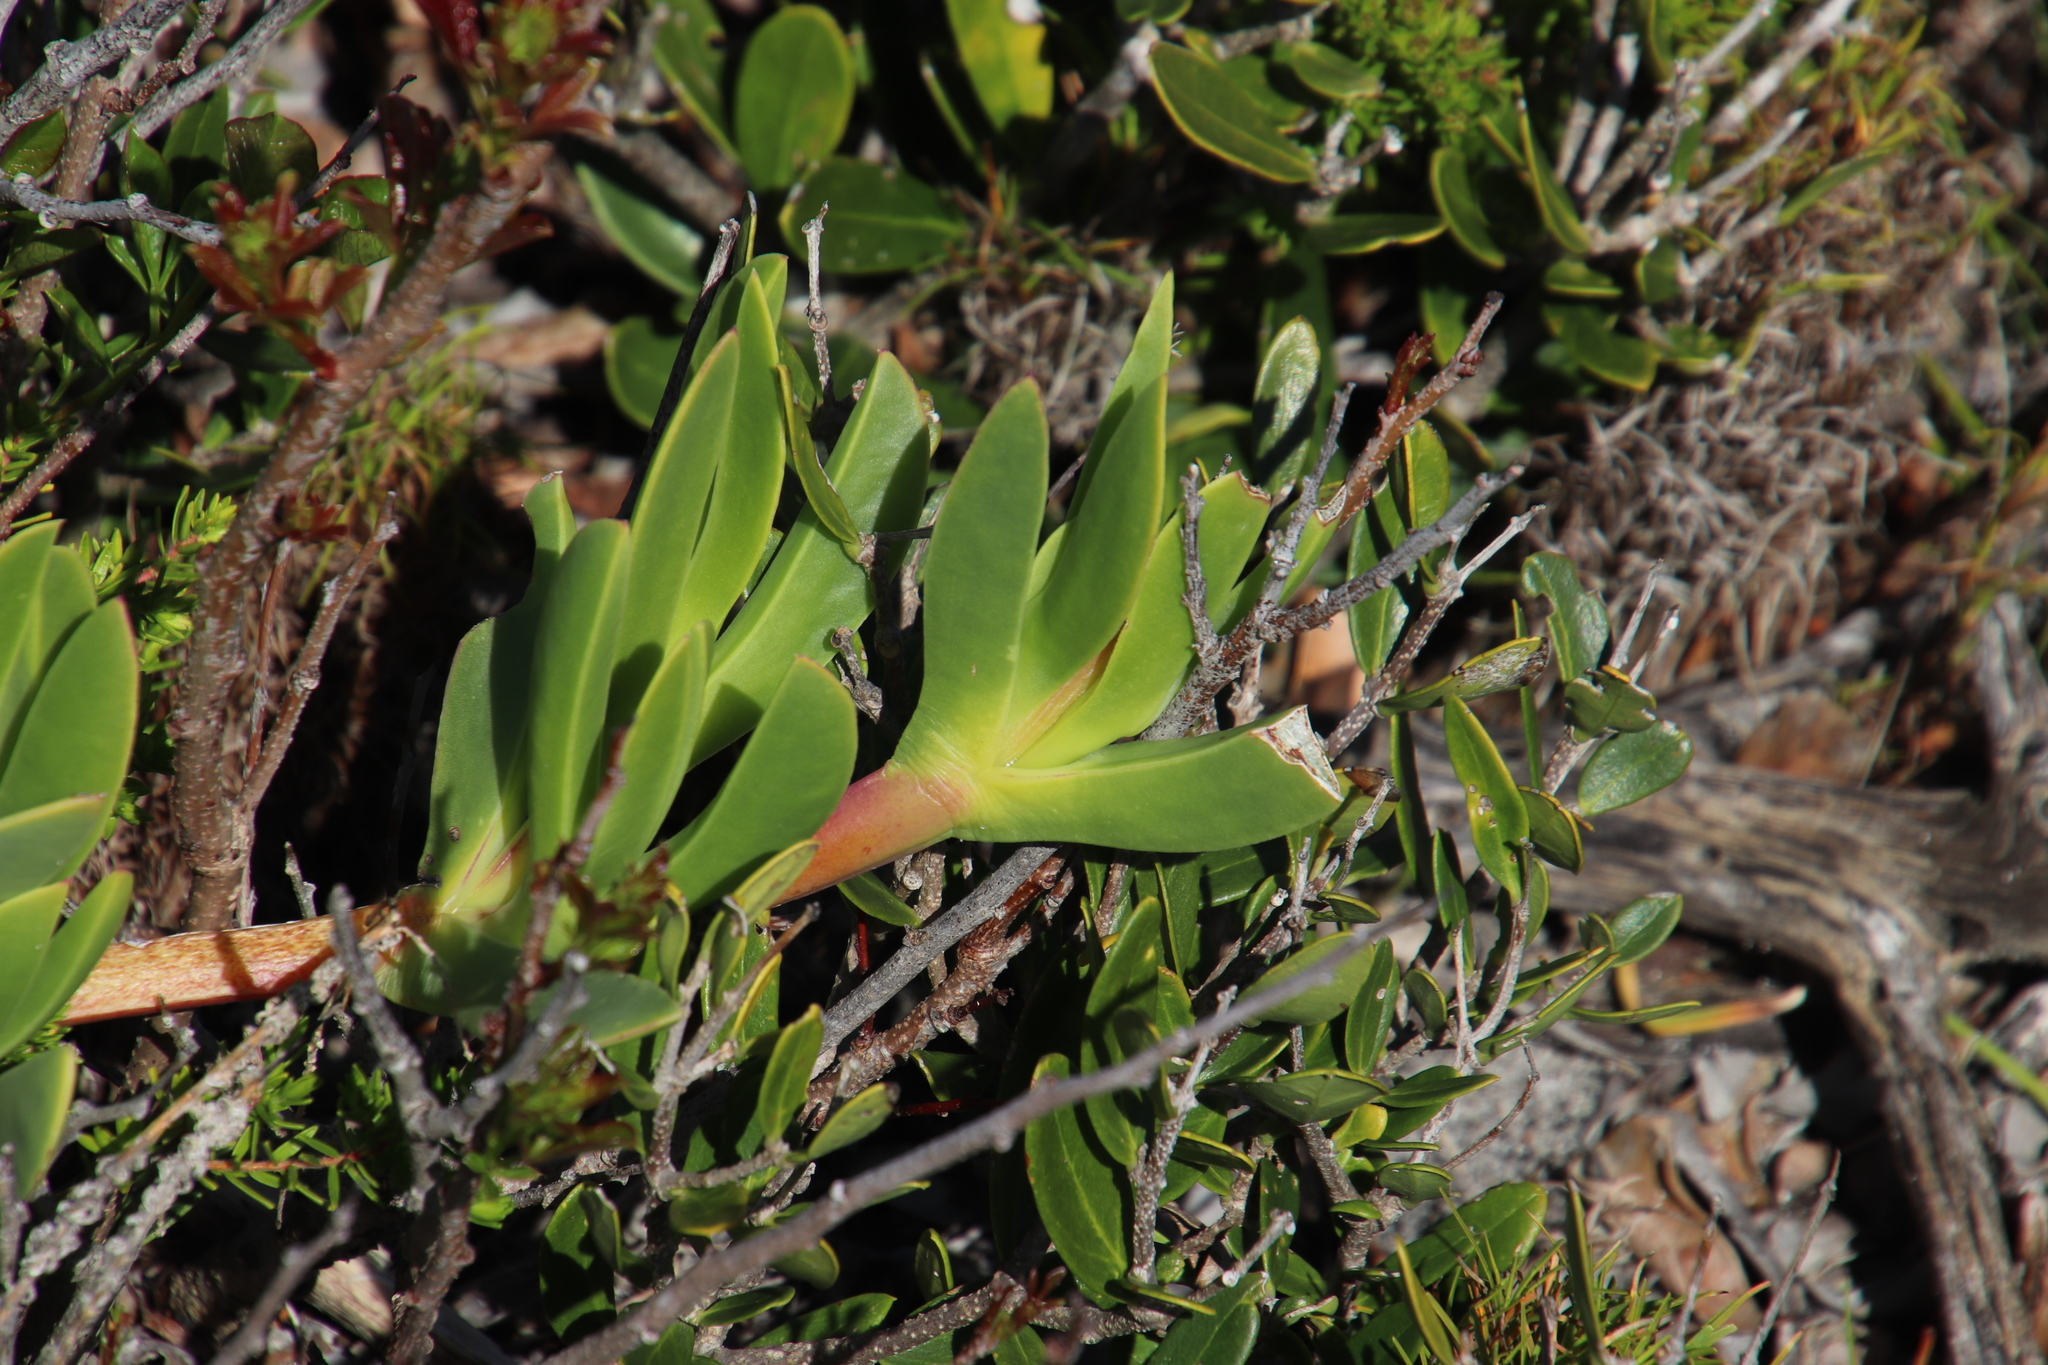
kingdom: Plantae
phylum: Tracheophyta
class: Magnoliopsida
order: Caryophyllales
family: Aizoaceae
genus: Carpobrotus
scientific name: Carpobrotus acinaciformis
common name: Sally-my-handsome
